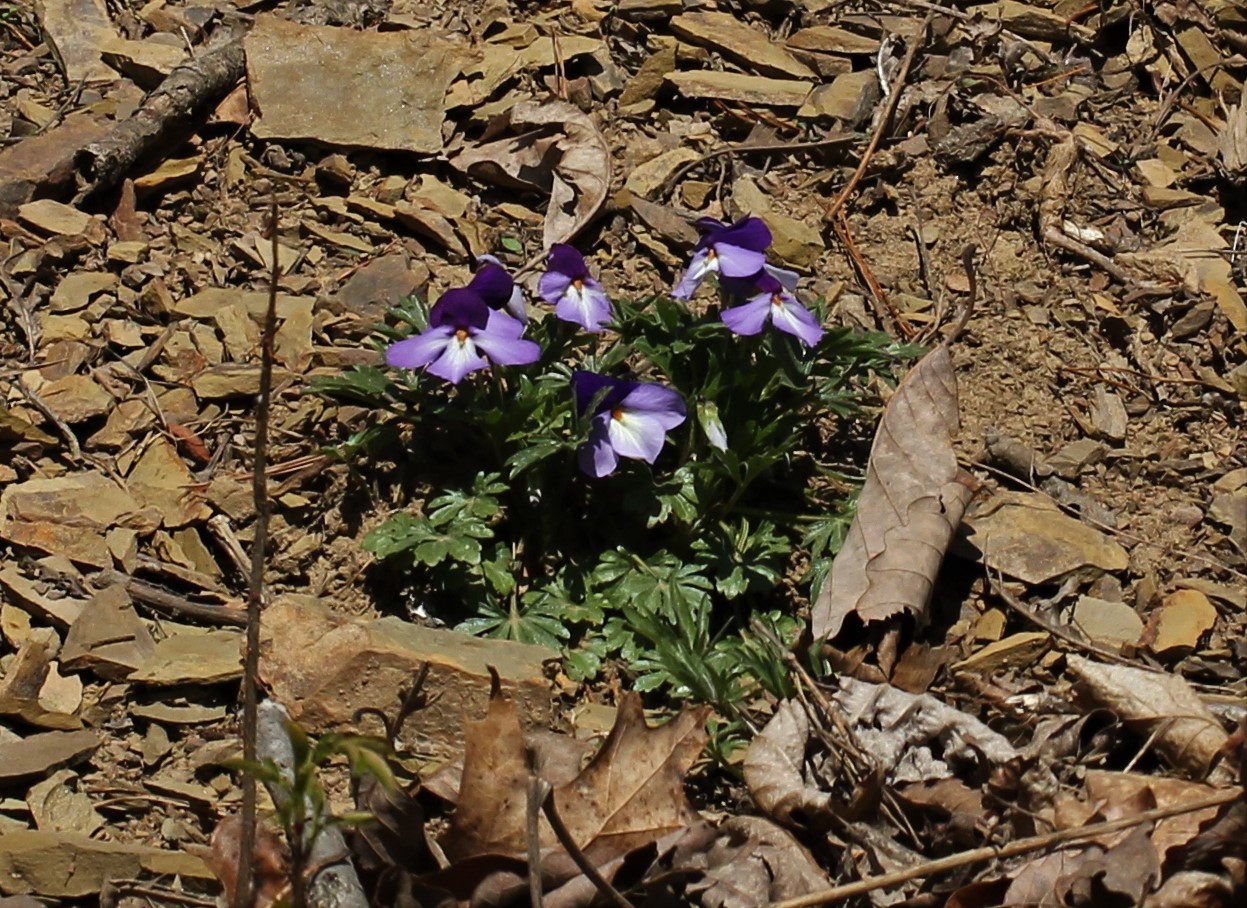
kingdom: Plantae
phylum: Tracheophyta
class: Magnoliopsida
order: Malpighiales
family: Violaceae
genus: Viola
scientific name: Viola pedata
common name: Pansy violet
